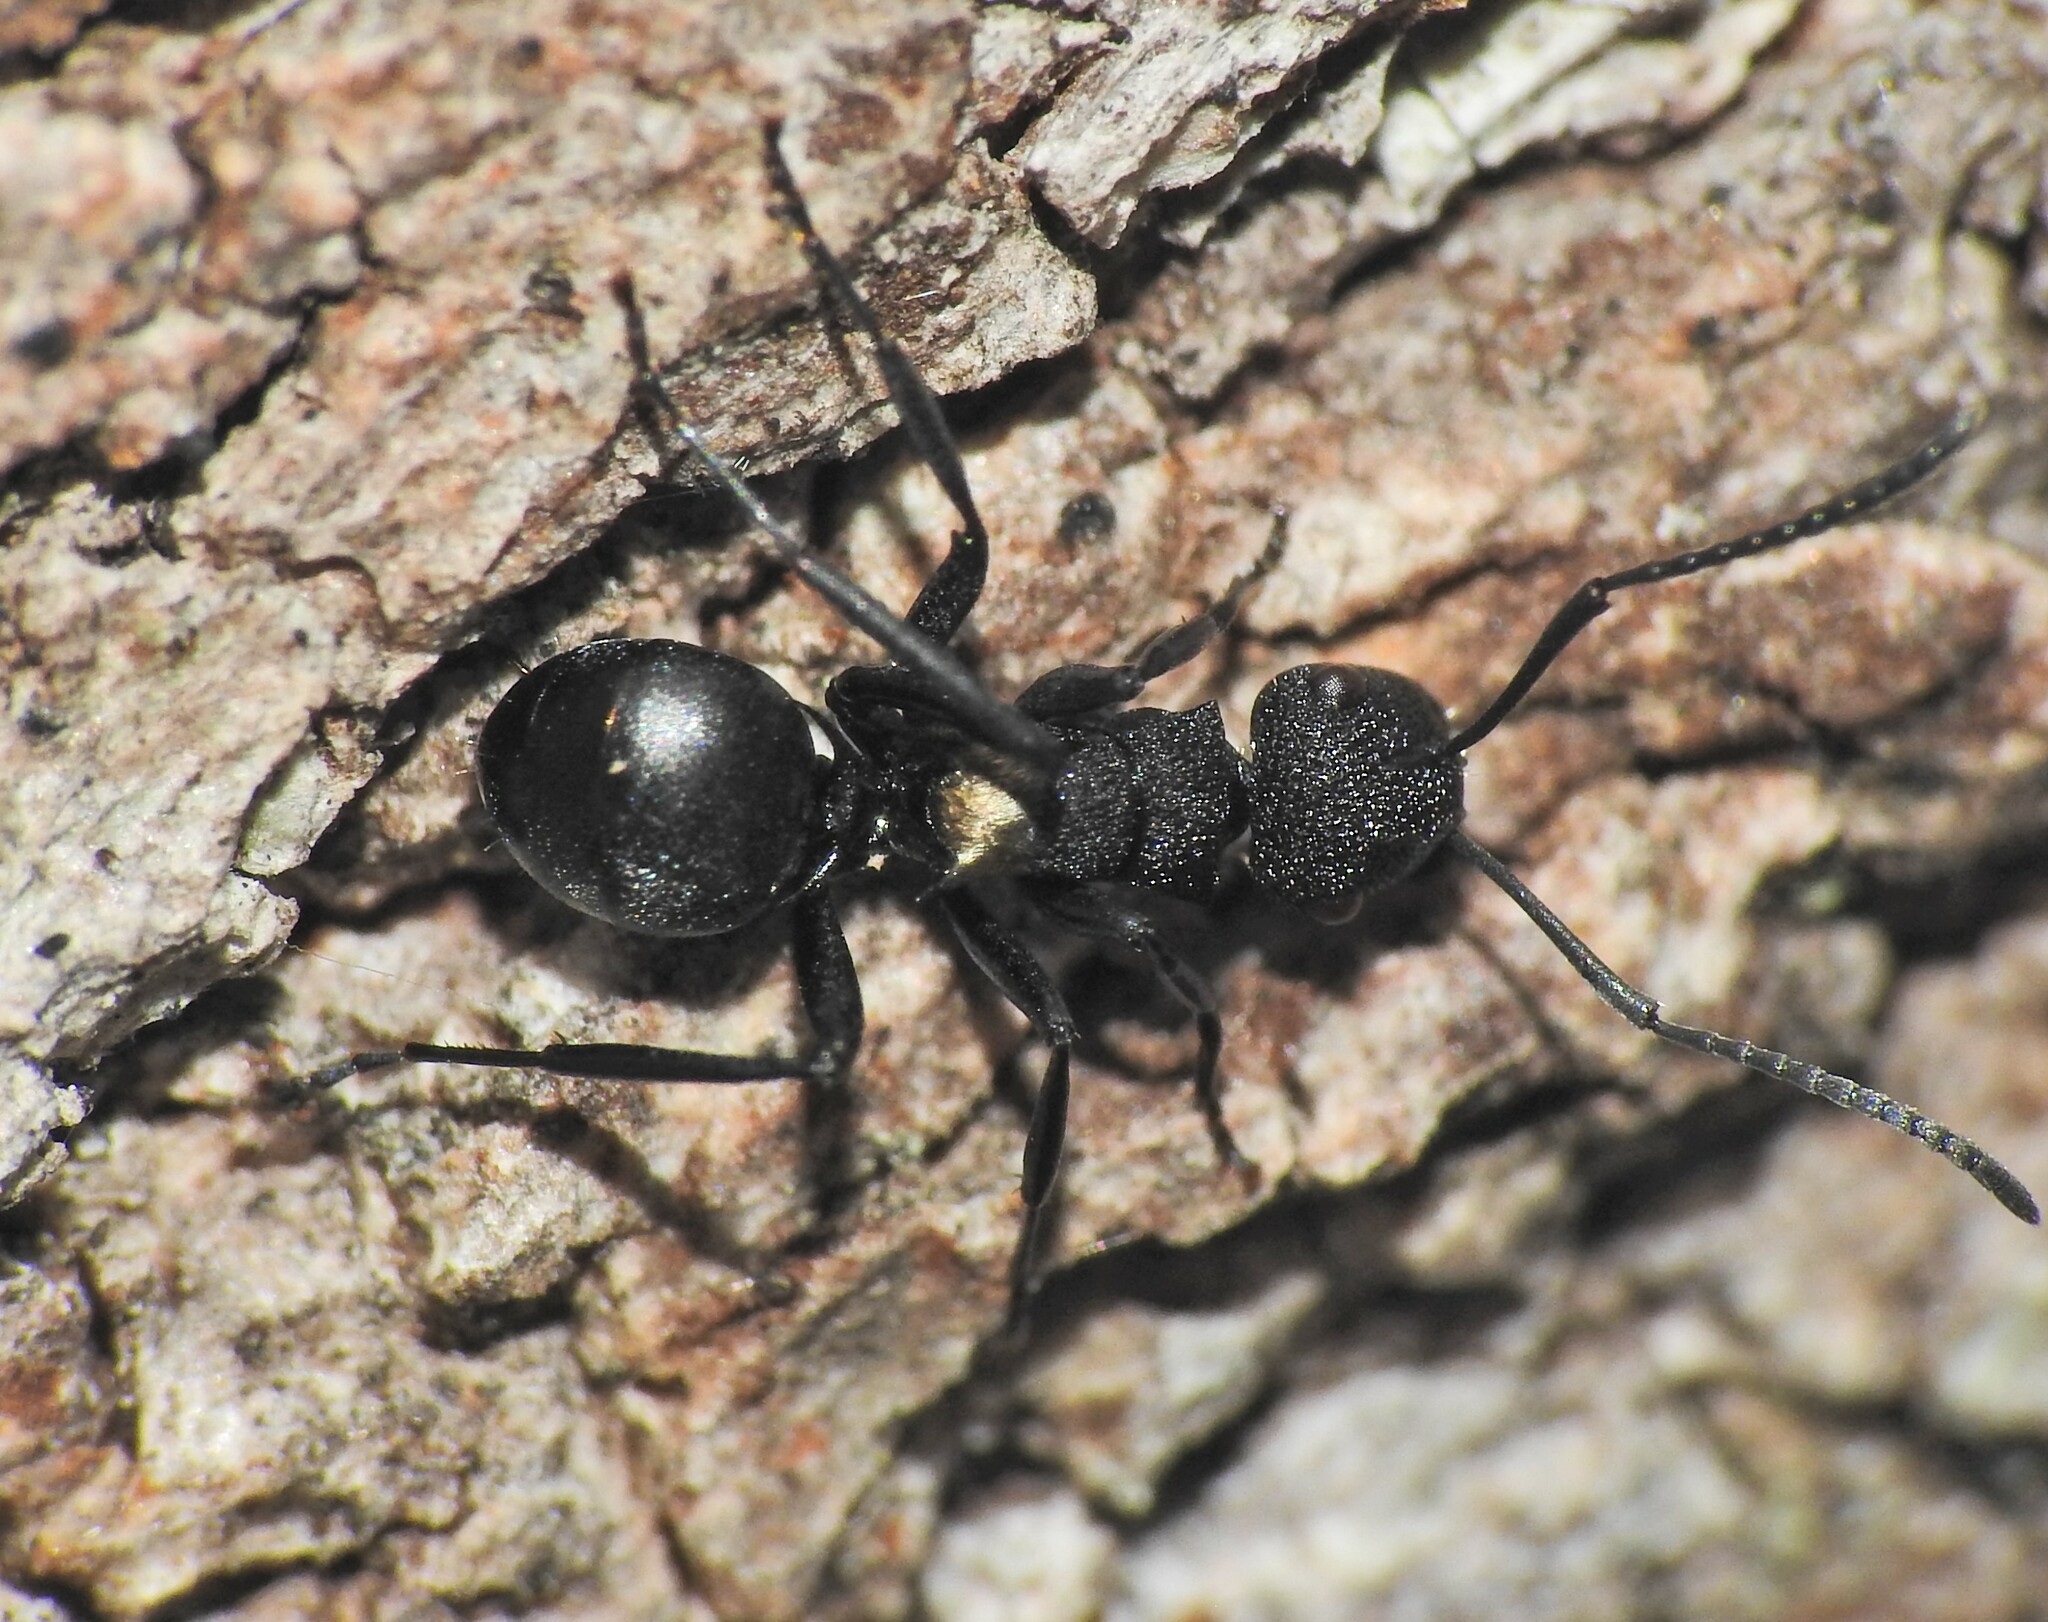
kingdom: Animalia
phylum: Arthropoda
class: Insecta
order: Hymenoptera
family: Formicidae
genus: Polyrhachis
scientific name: Polyrhachis machaon
